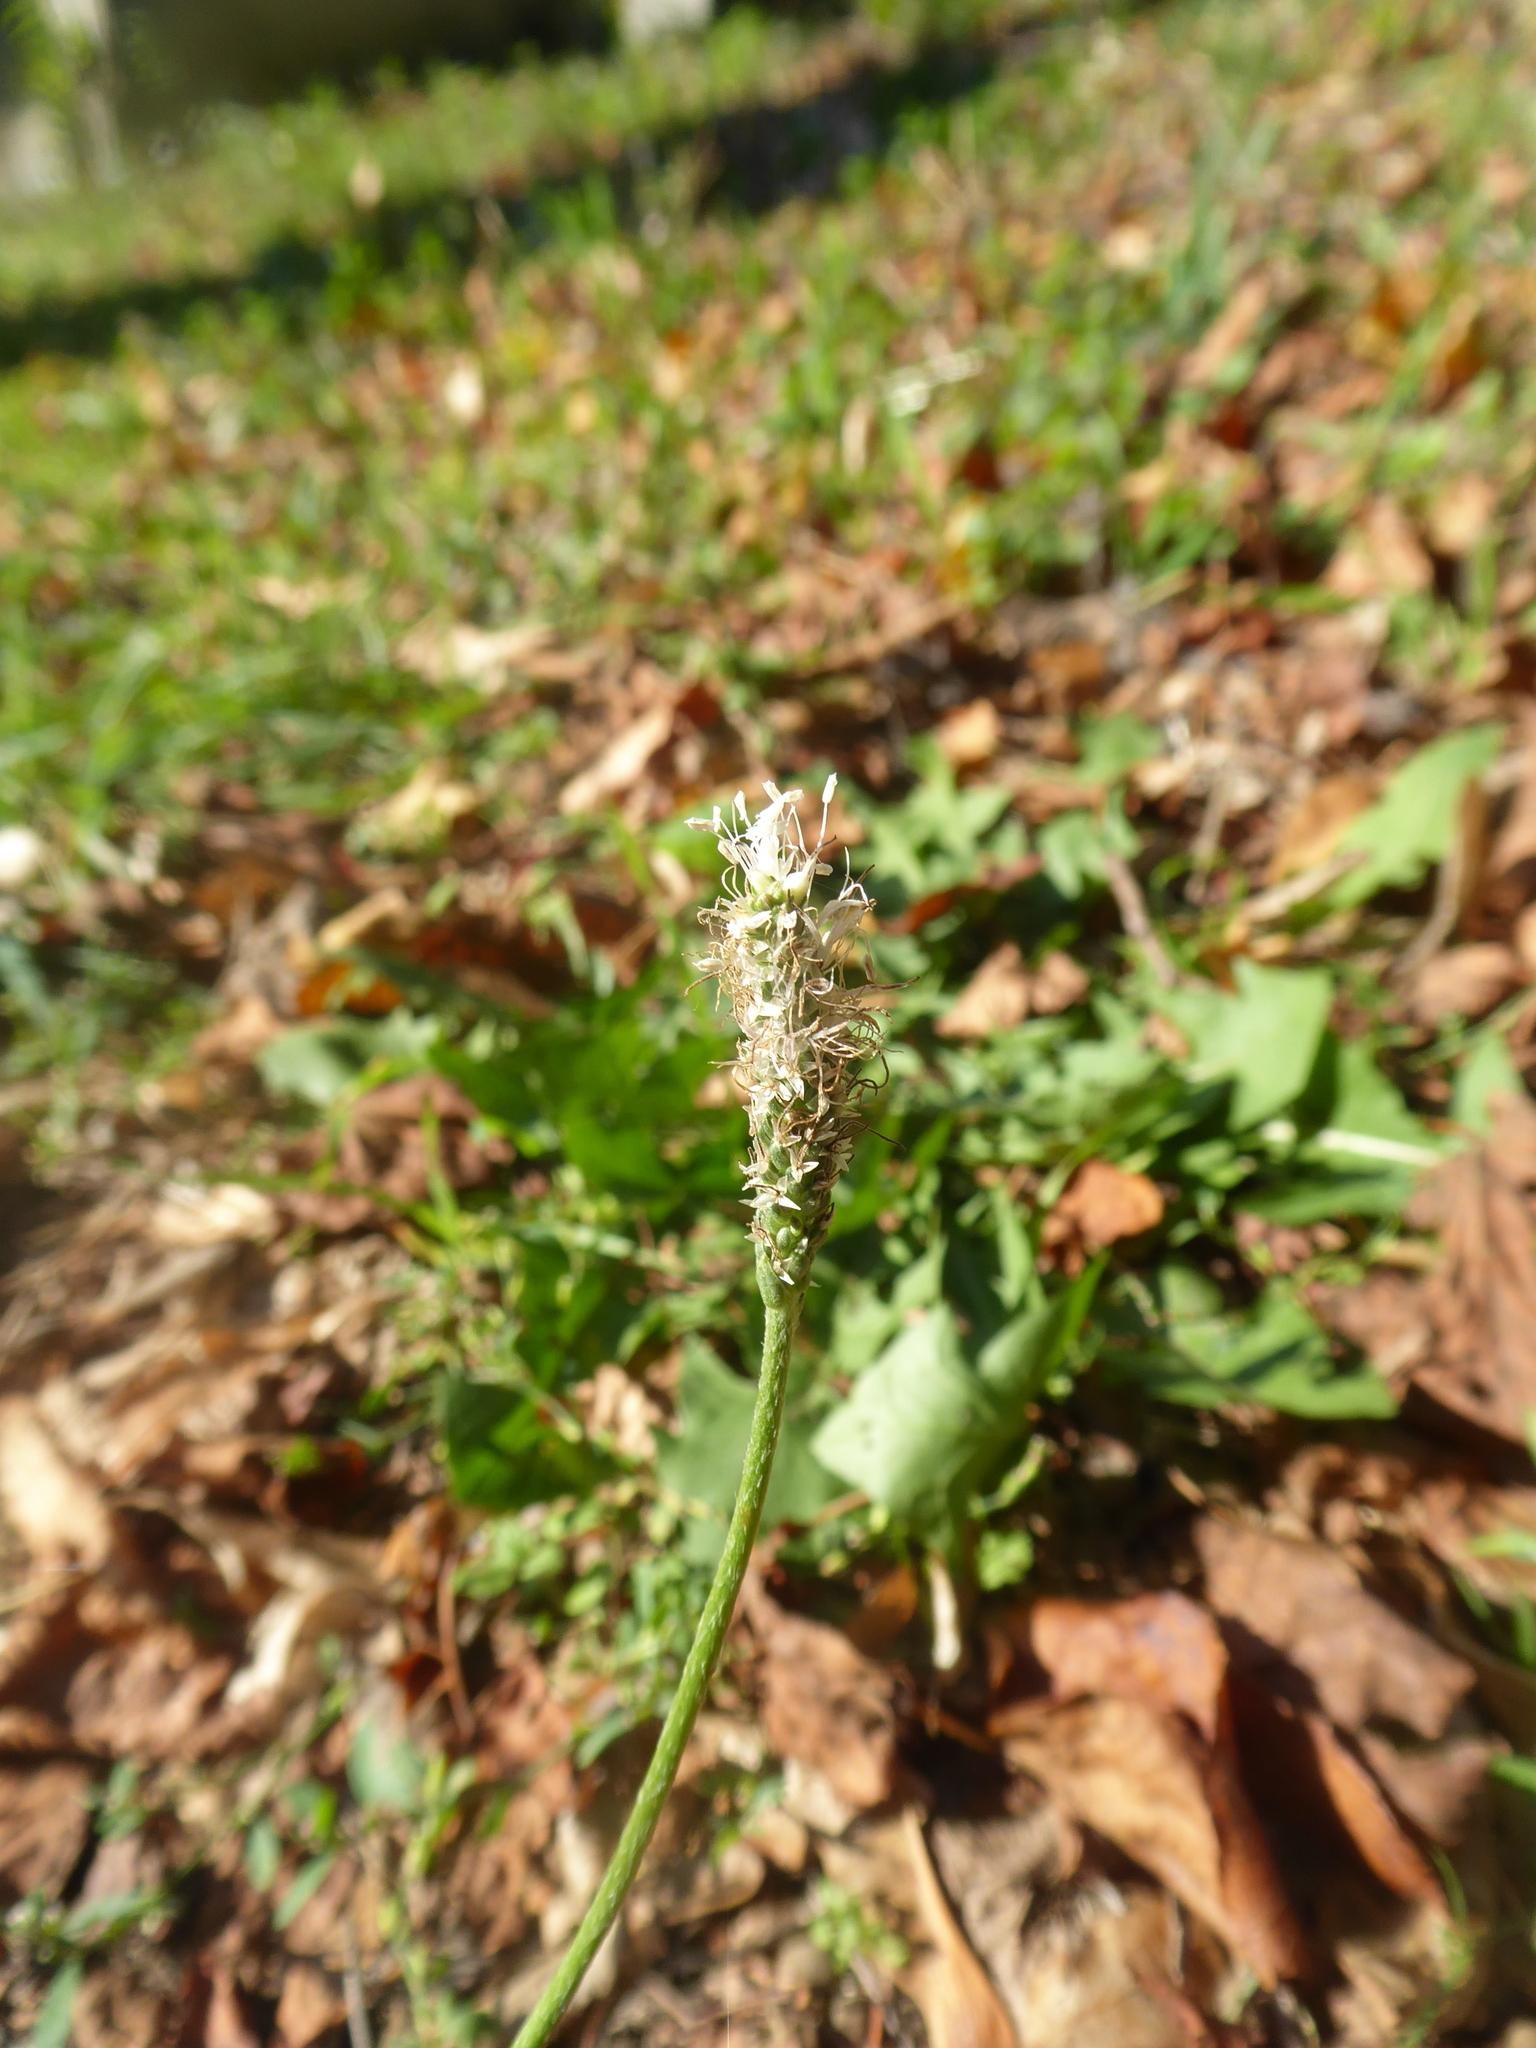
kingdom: Plantae
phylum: Tracheophyta
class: Magnoliopsida
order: Lamiales
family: Plantaginaceae
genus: Plantago
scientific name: Plantago media
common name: Hoary plantain
